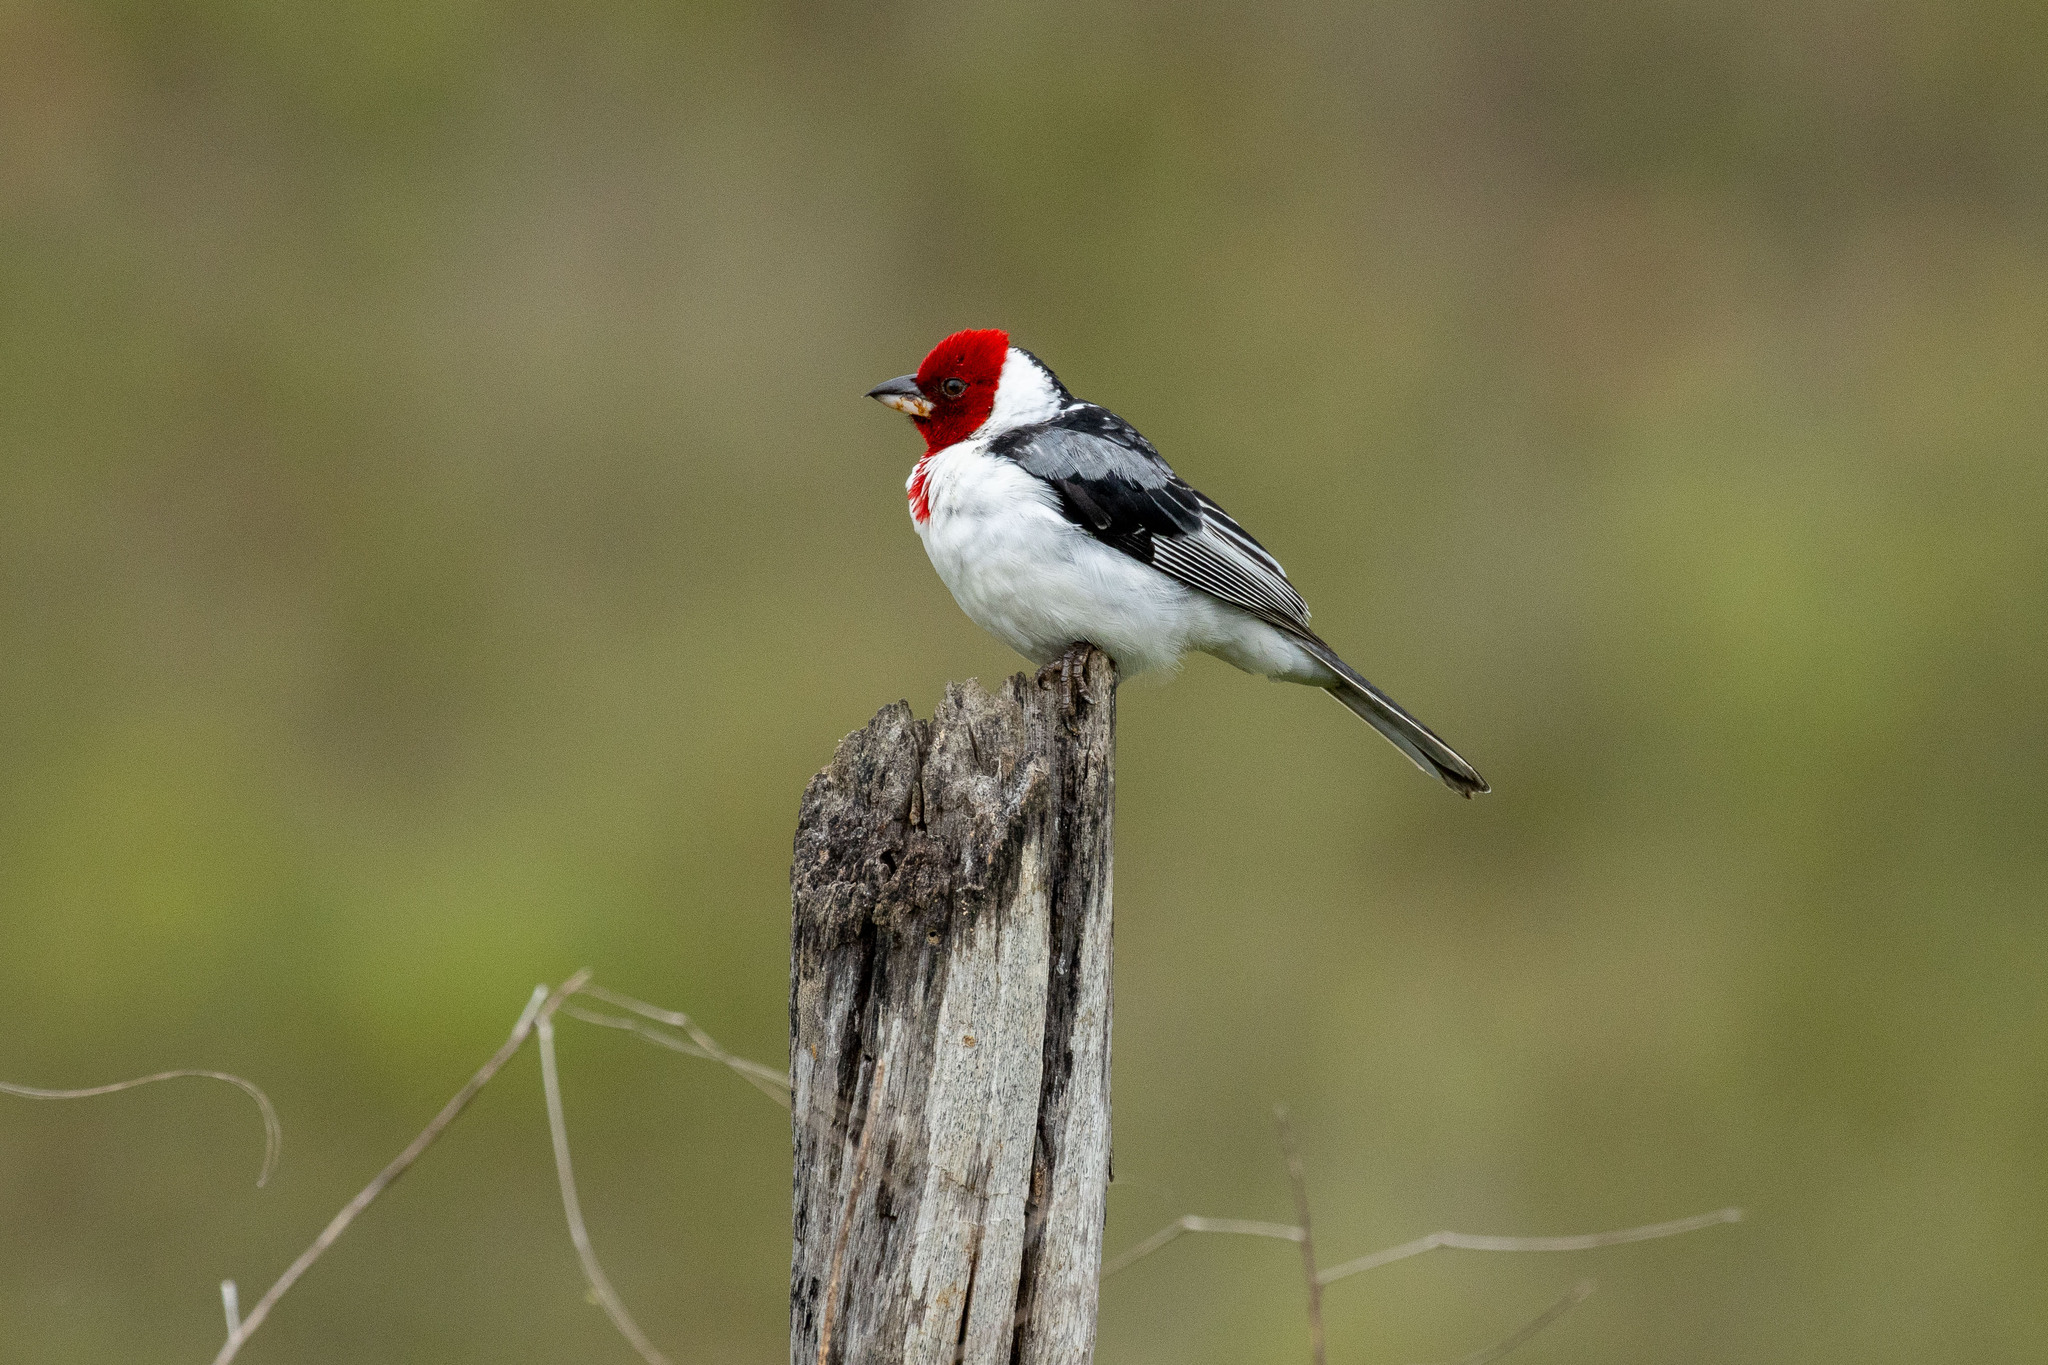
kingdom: Animalia
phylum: Chordata
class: Aves
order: Passeriformes
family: Thraupidae
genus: Paroaria
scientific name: Paroaria dominicana
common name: Red-cowled cardinal
